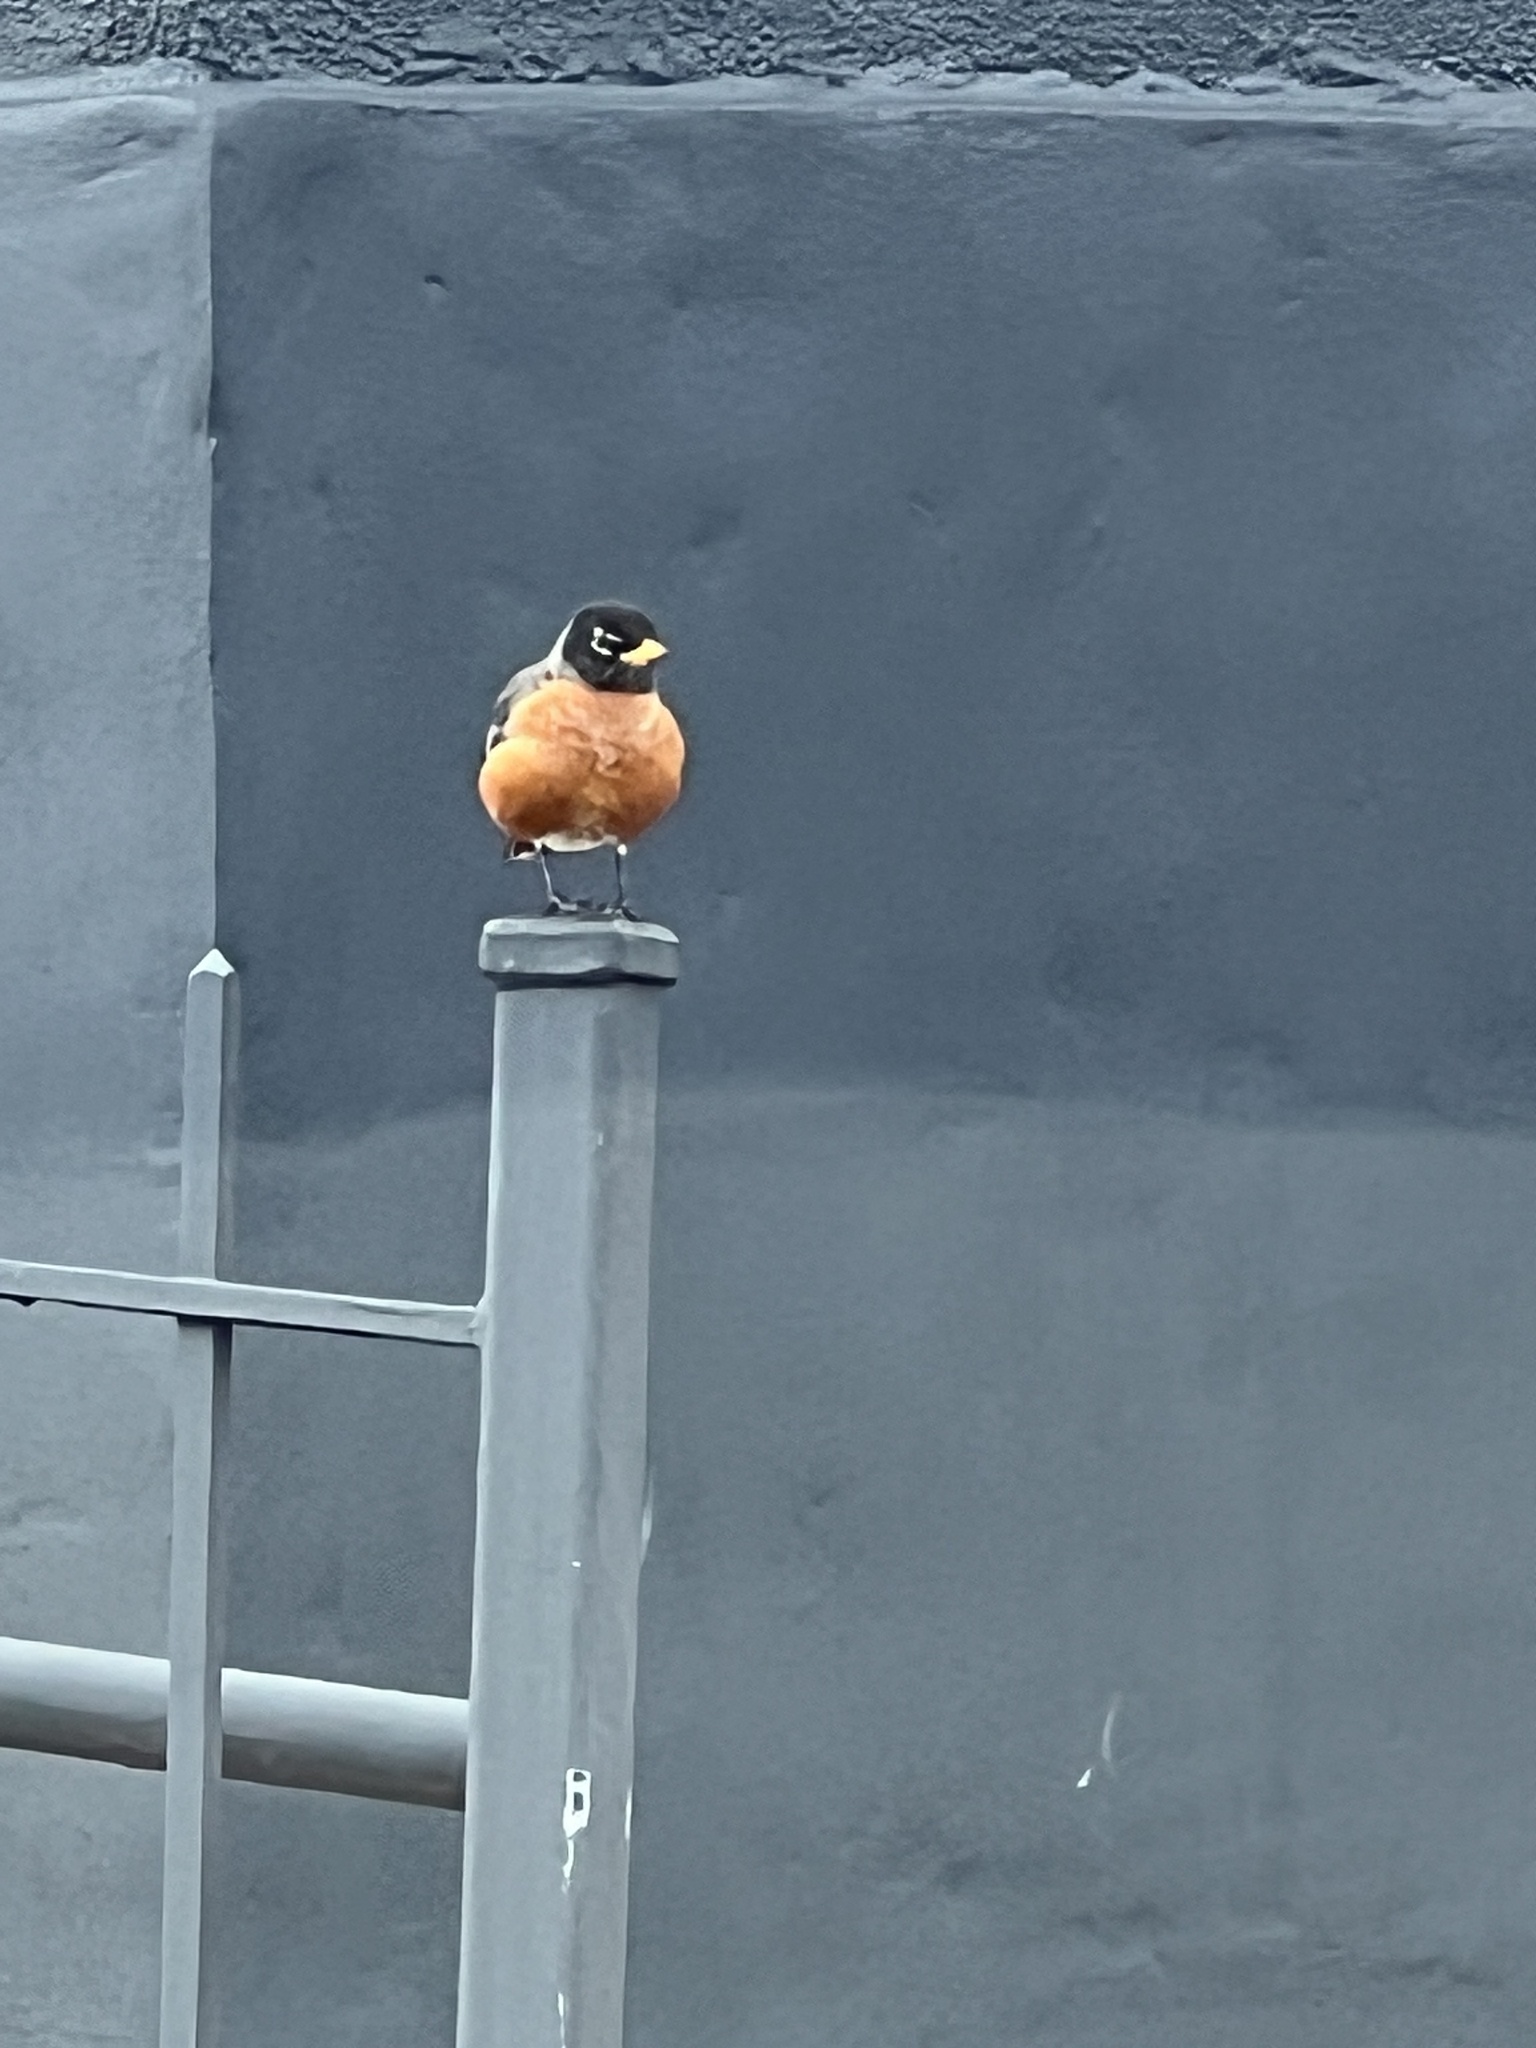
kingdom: Animalia
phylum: Chordata
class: Aves
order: Passeriformes
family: Turdidae
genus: Turdus
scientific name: Turdus migratorius
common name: American robin
